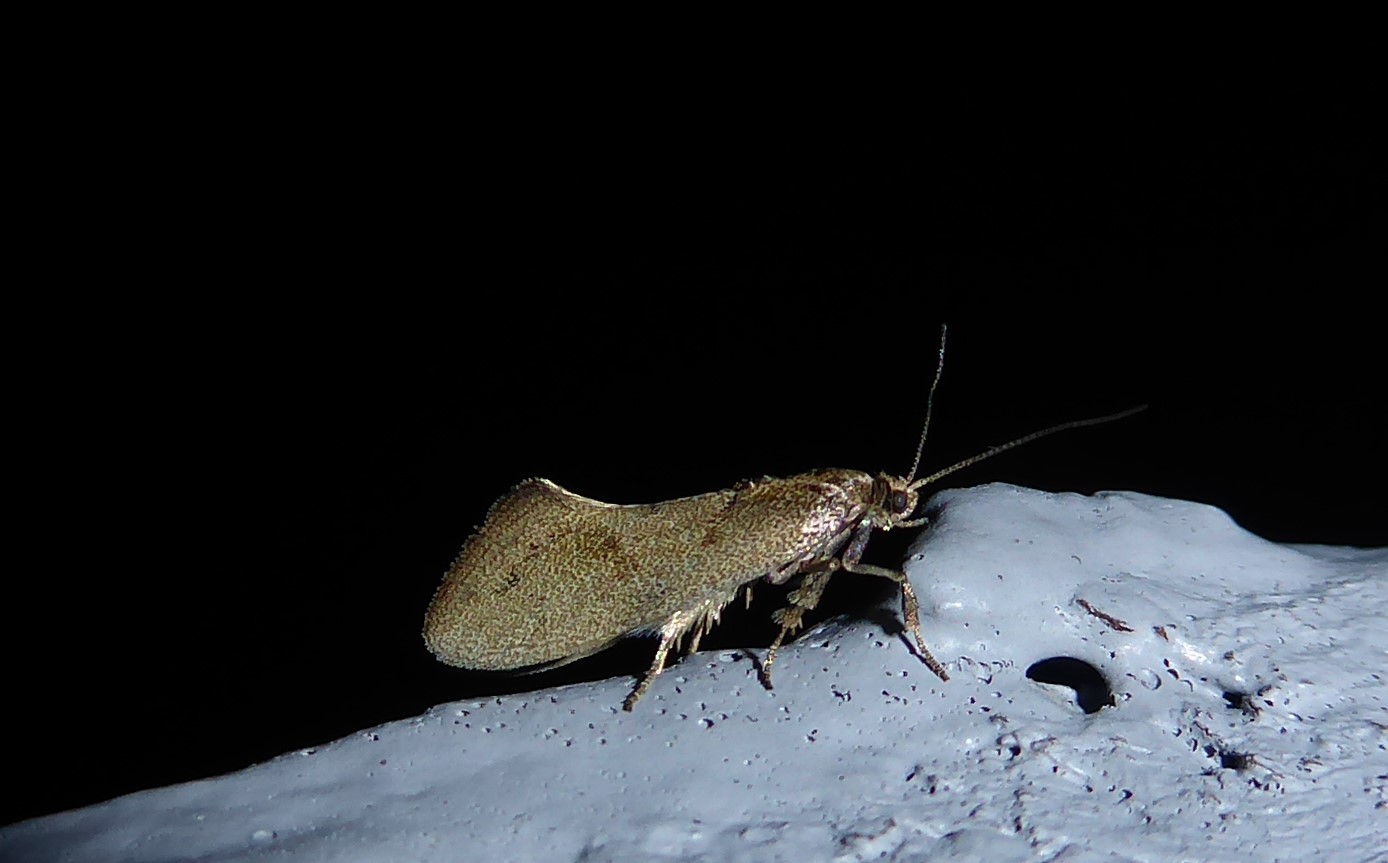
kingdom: Animalia
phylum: Arthropoda
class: Insecta
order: Lepidoptera
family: Oecophoridae
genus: Tingena
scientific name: Tingena brachyacma
